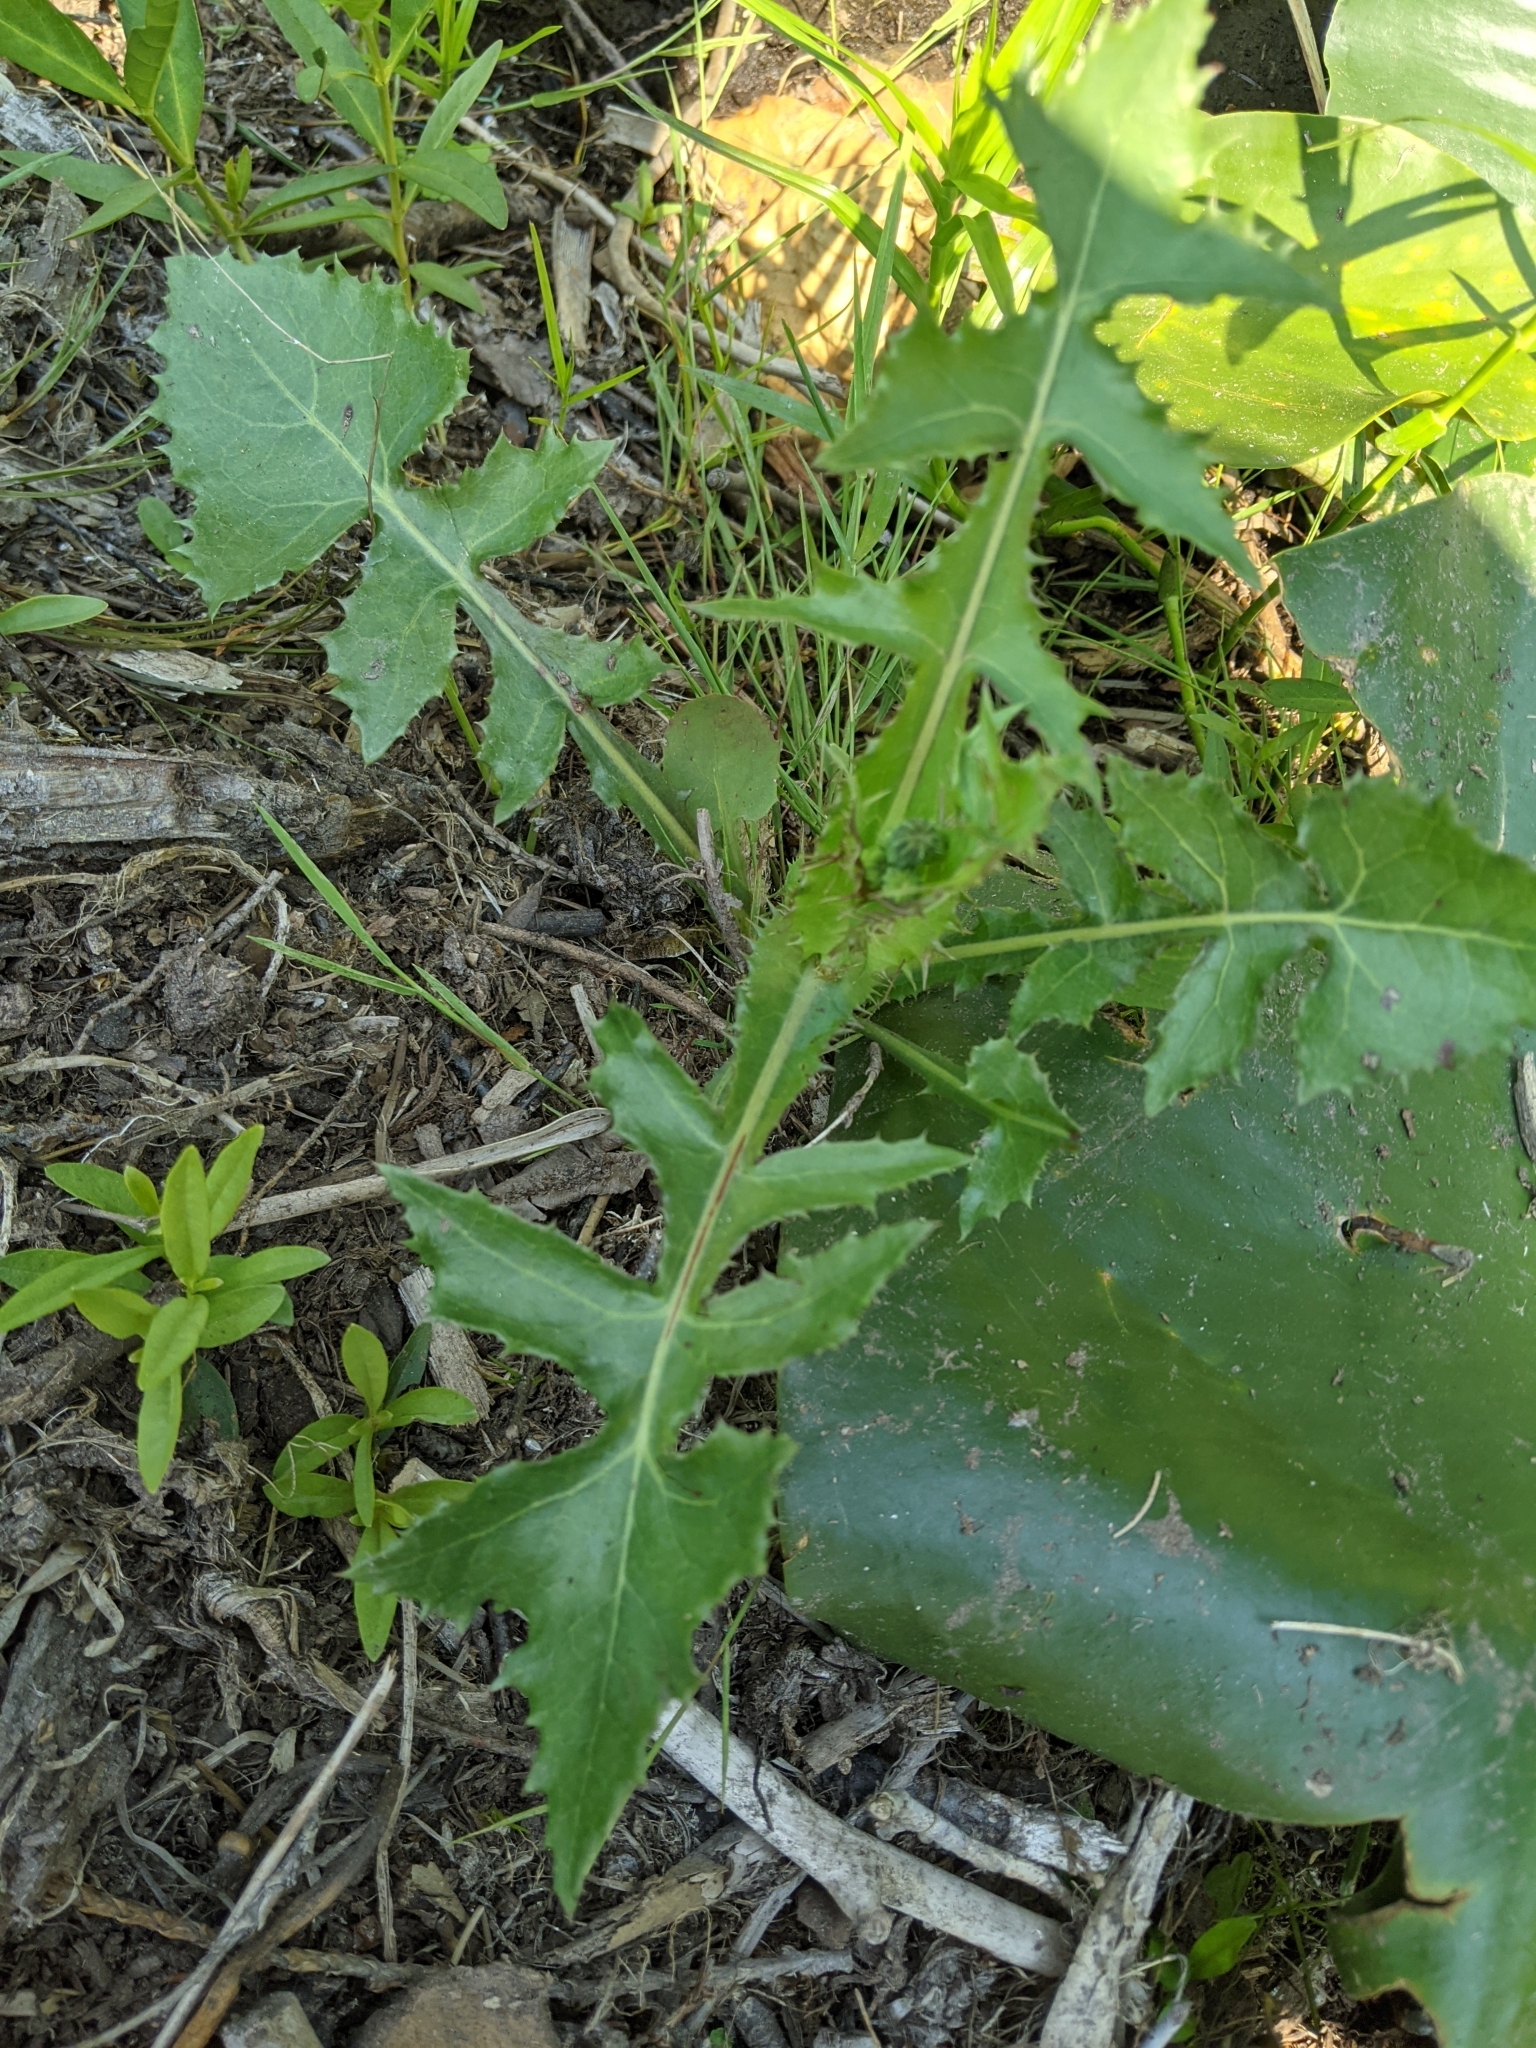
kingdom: Plantae
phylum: Tracheophyta
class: Magnoliopsida
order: Asterales
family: Asteraceae
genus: Sonchus
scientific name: Sonchus oleraceus
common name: Common sowthistle
